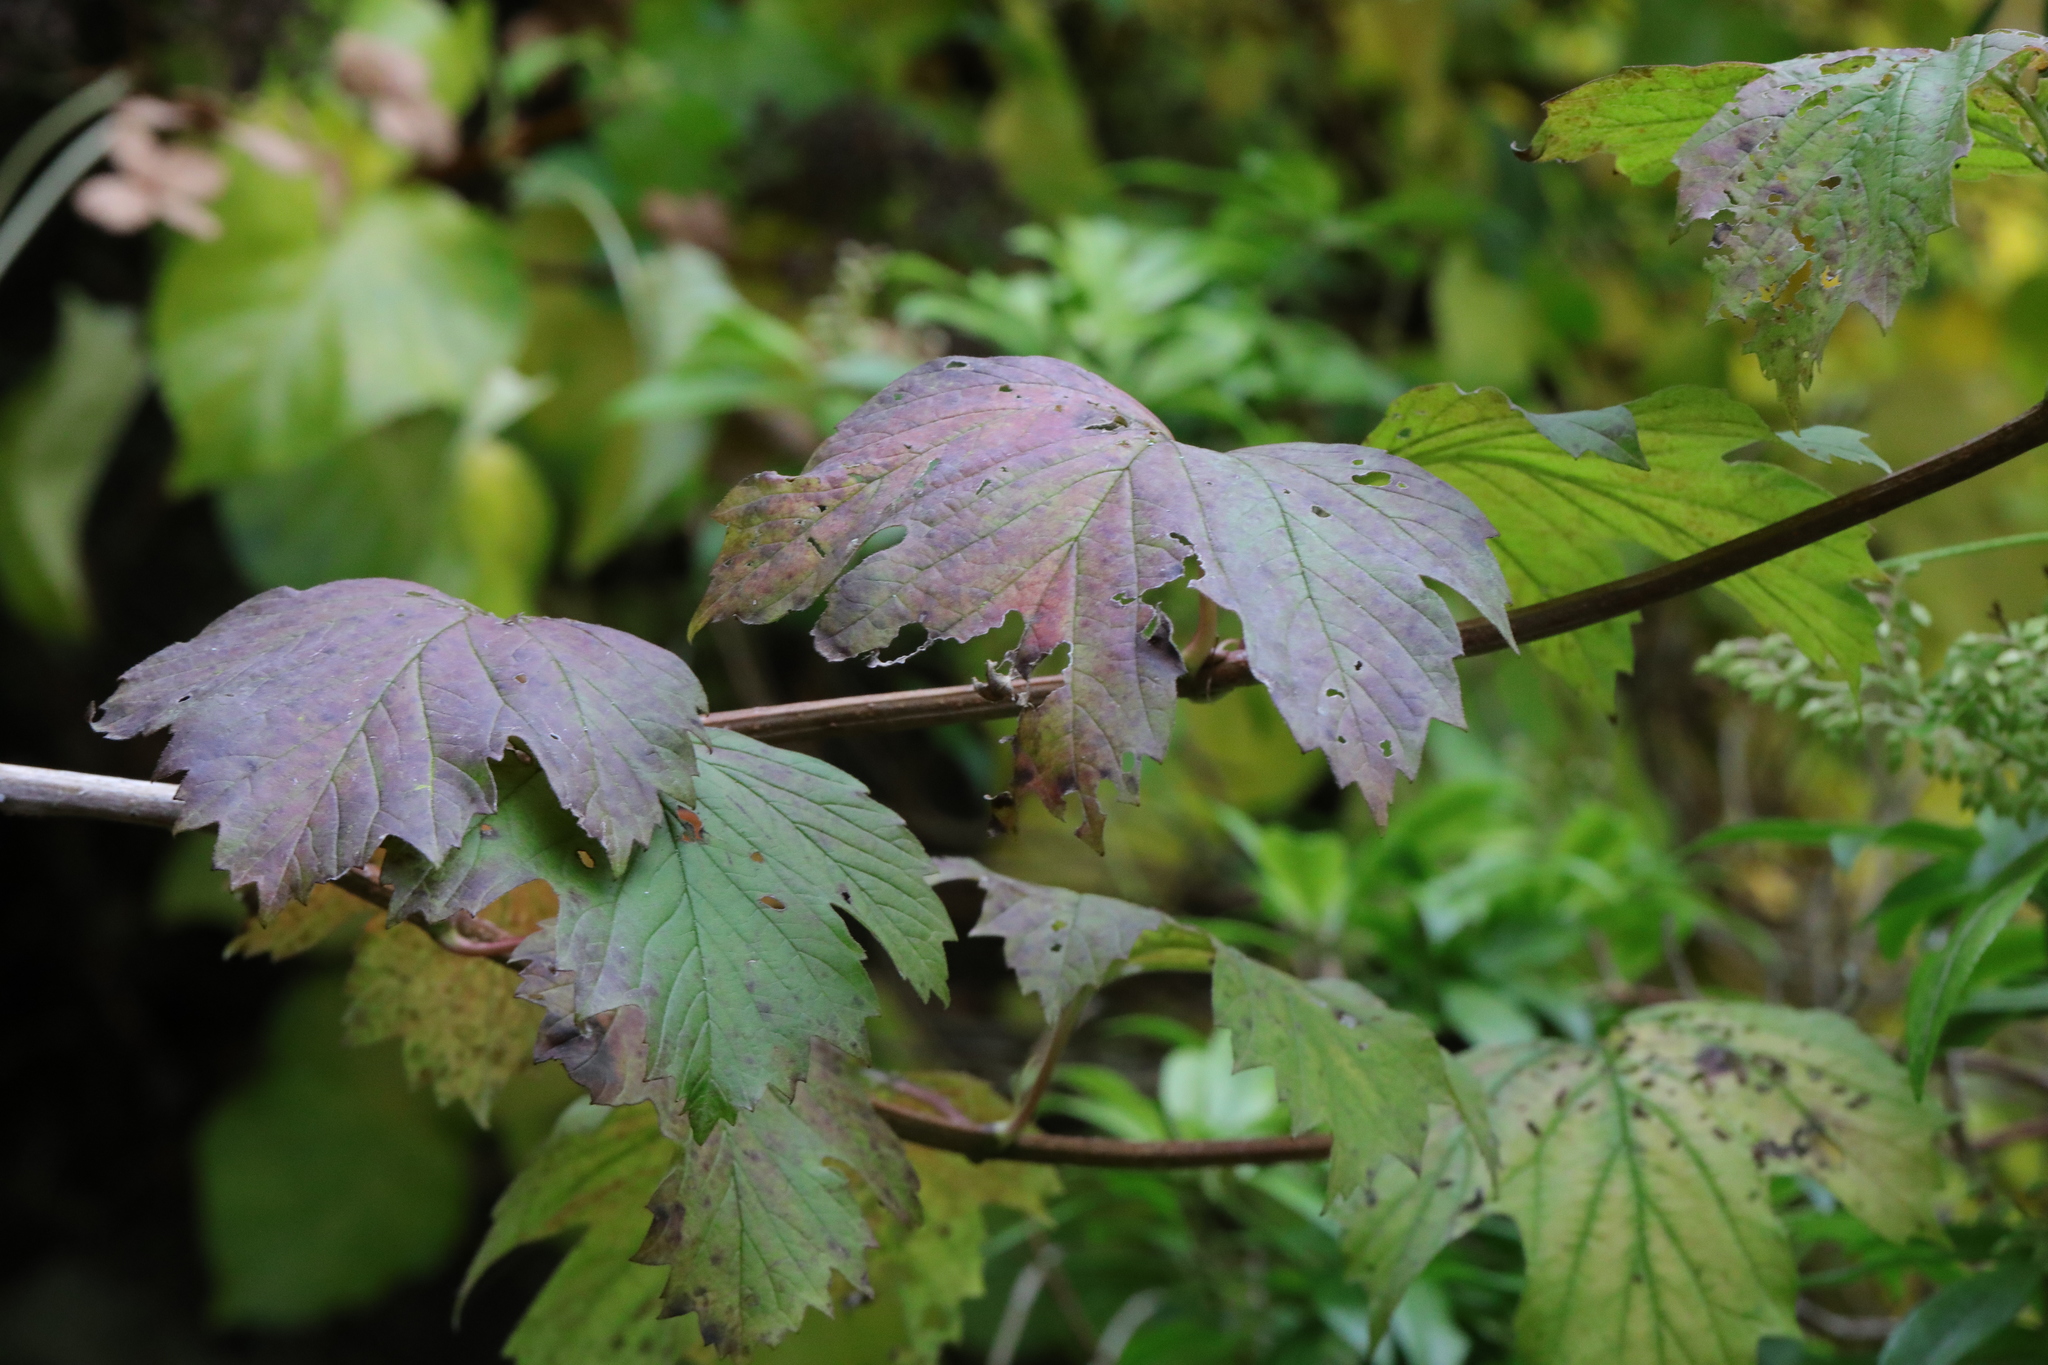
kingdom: Plantae
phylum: Tracheophyta
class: Magnoliopsida
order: Dipsacales
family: Viburnaceae
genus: Viburnum
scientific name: Viburnum opulus
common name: Guelder-rose
